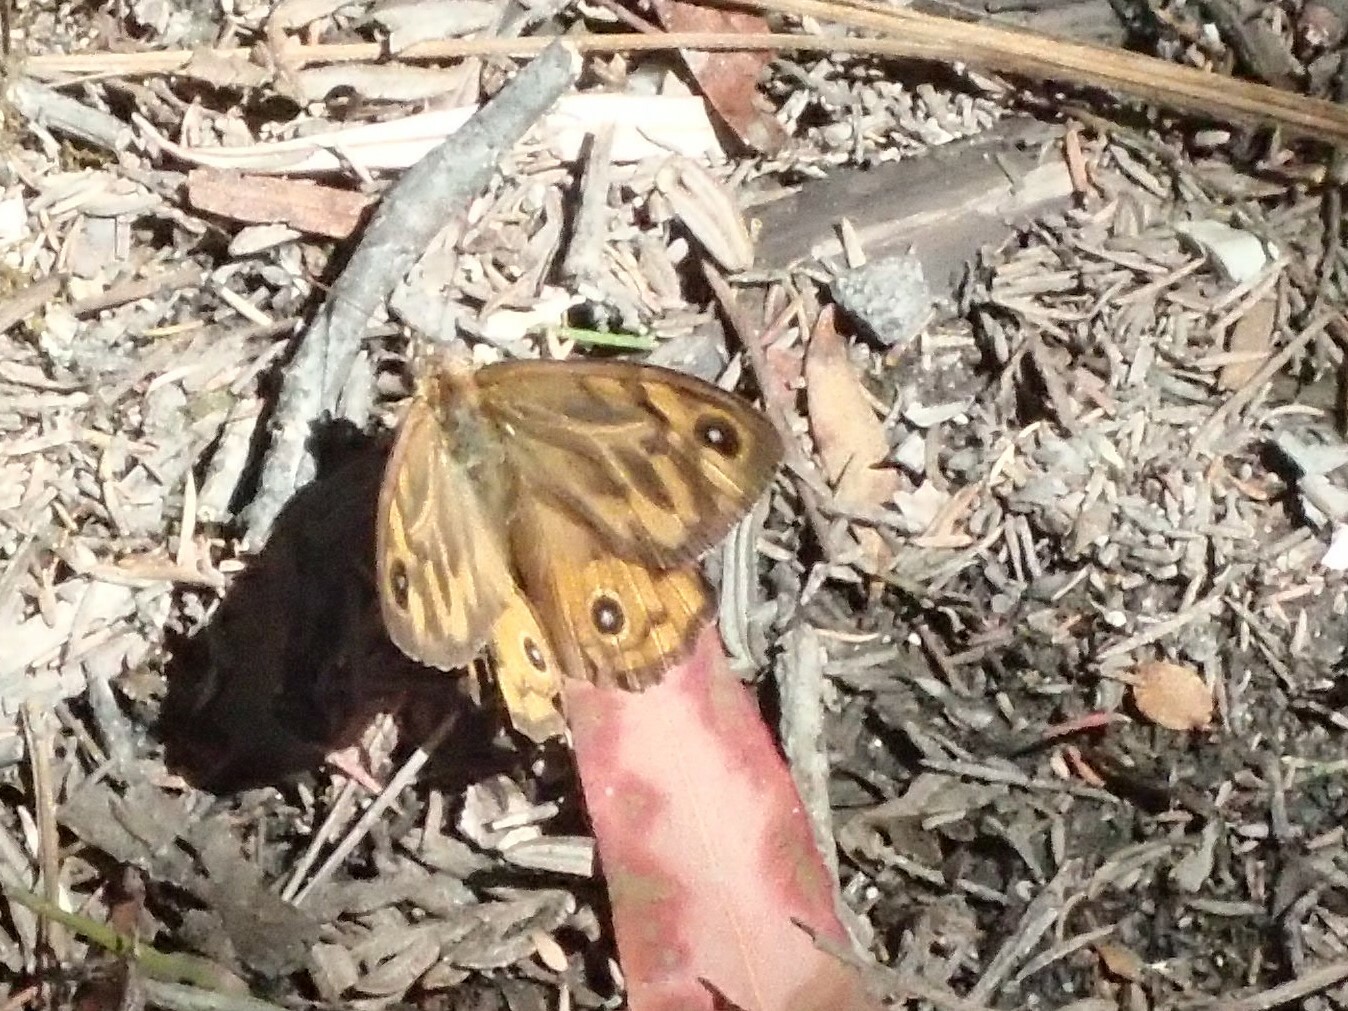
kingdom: Animalia
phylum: Arthropoda
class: Insecta
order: Lepidoptera
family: Nymphalidae
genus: Heteronympha
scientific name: Heteronympha merope
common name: Common brown
